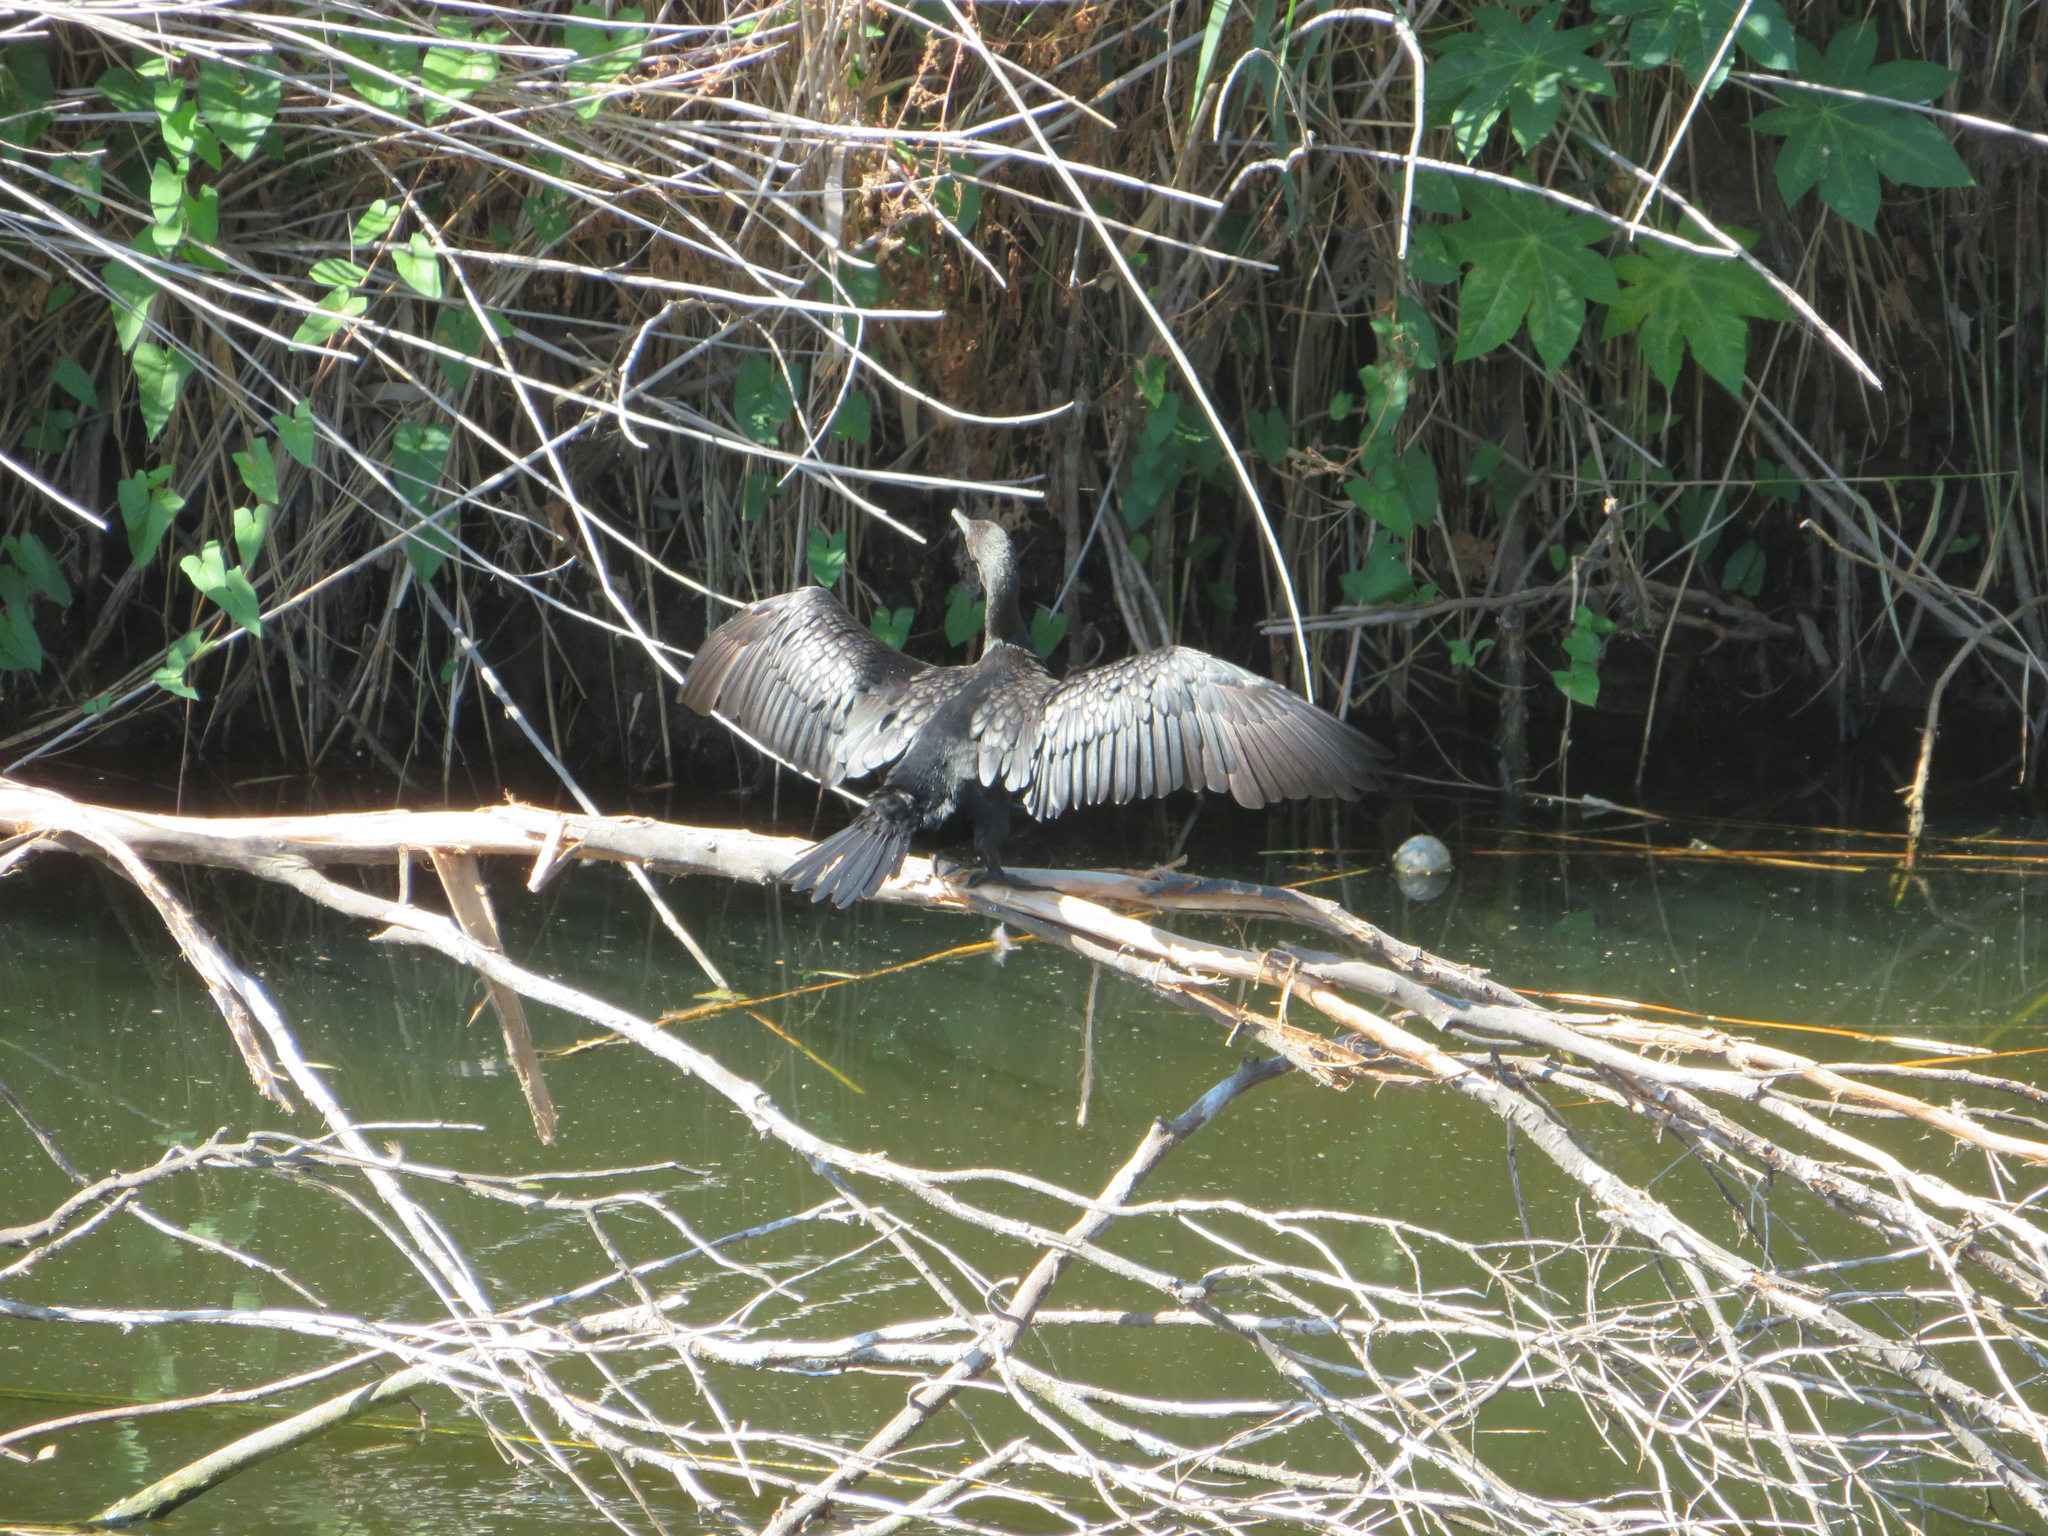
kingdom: Animalia
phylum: Chordata
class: Aves
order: Suliformes
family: Phalacrocoracidae
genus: Phalacrocorax
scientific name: Phalacrocorax sulcirostris
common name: Little black cormorant
